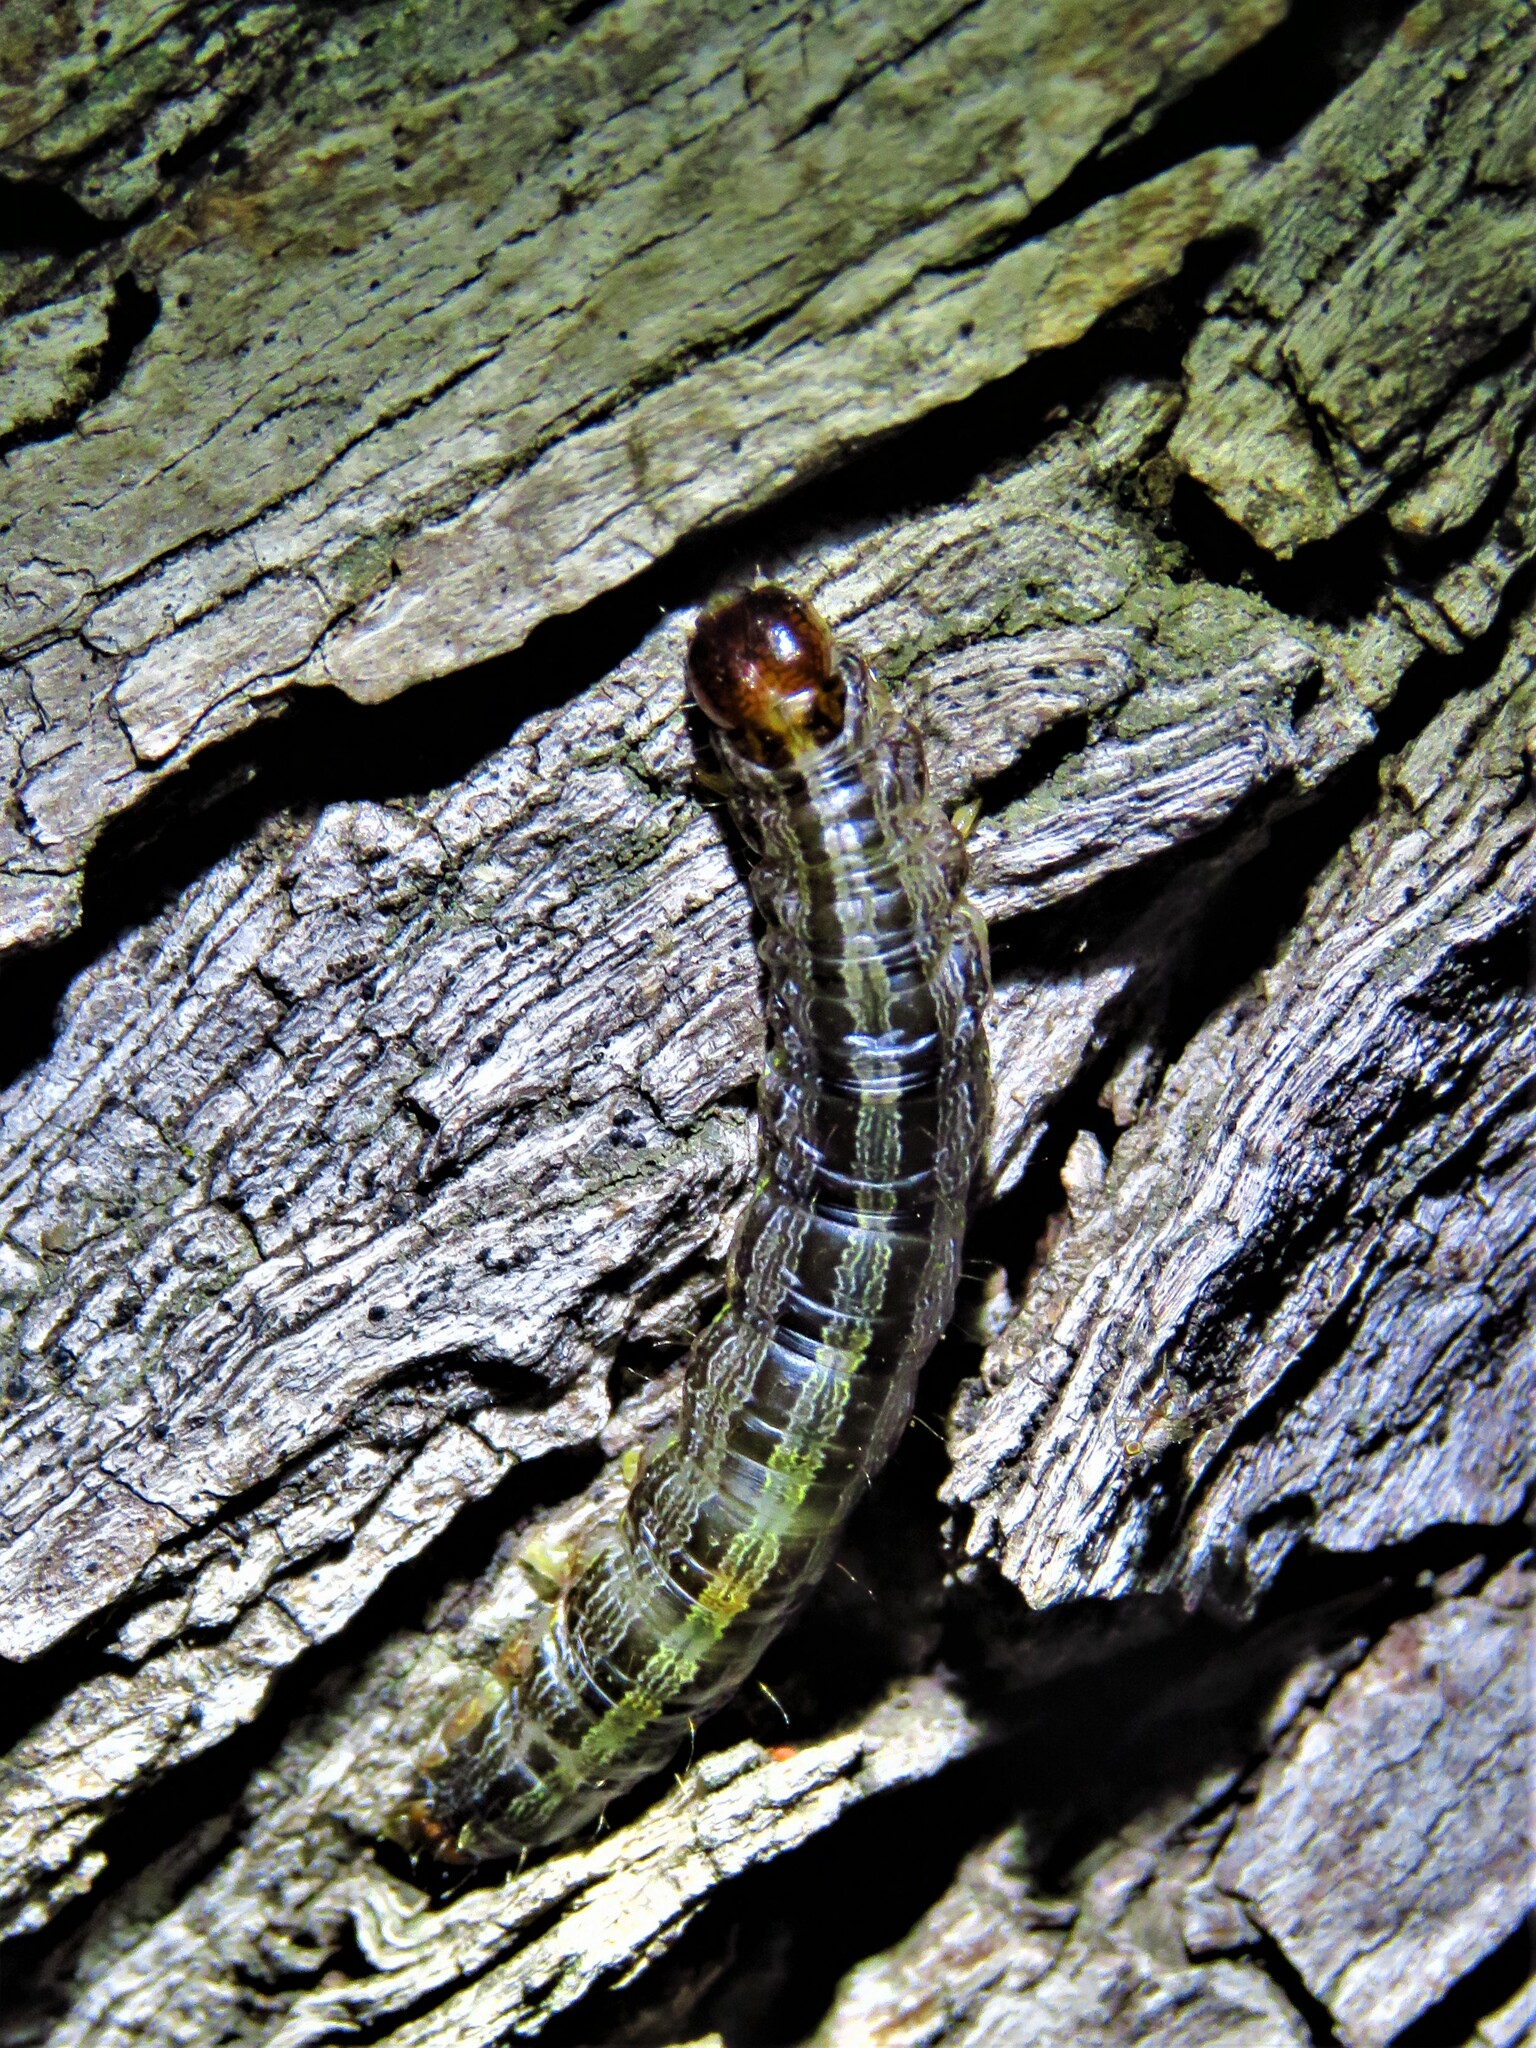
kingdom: Animalia
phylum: Arthropoda
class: Insecta
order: Lepidoptera
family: Erebidae
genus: Melipotis
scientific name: Melipotis indomita
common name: Moth
